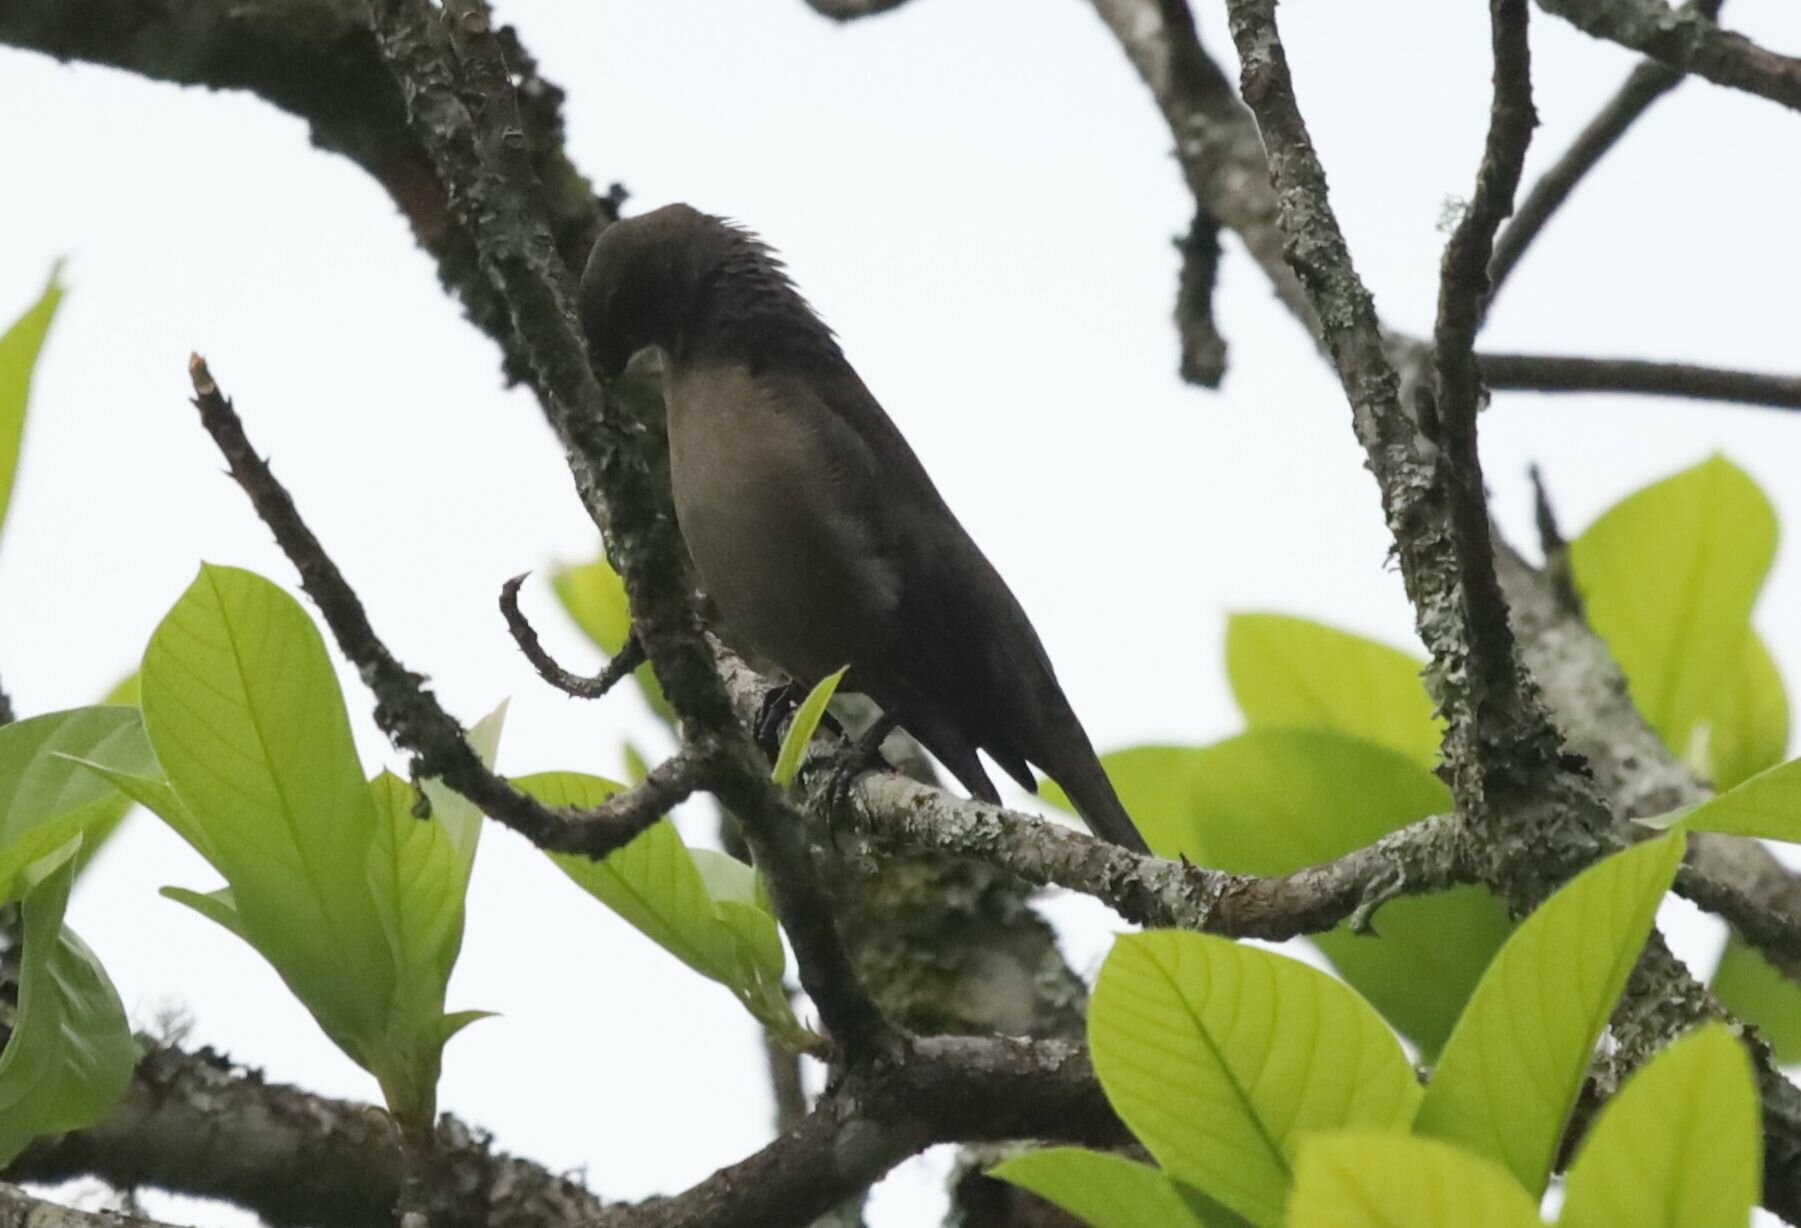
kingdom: Animalia
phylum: Chordata
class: Aves
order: Passeriformes
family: Icteridae
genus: Molothrus
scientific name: Molothrus bonariensis
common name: Shiny cowbird
